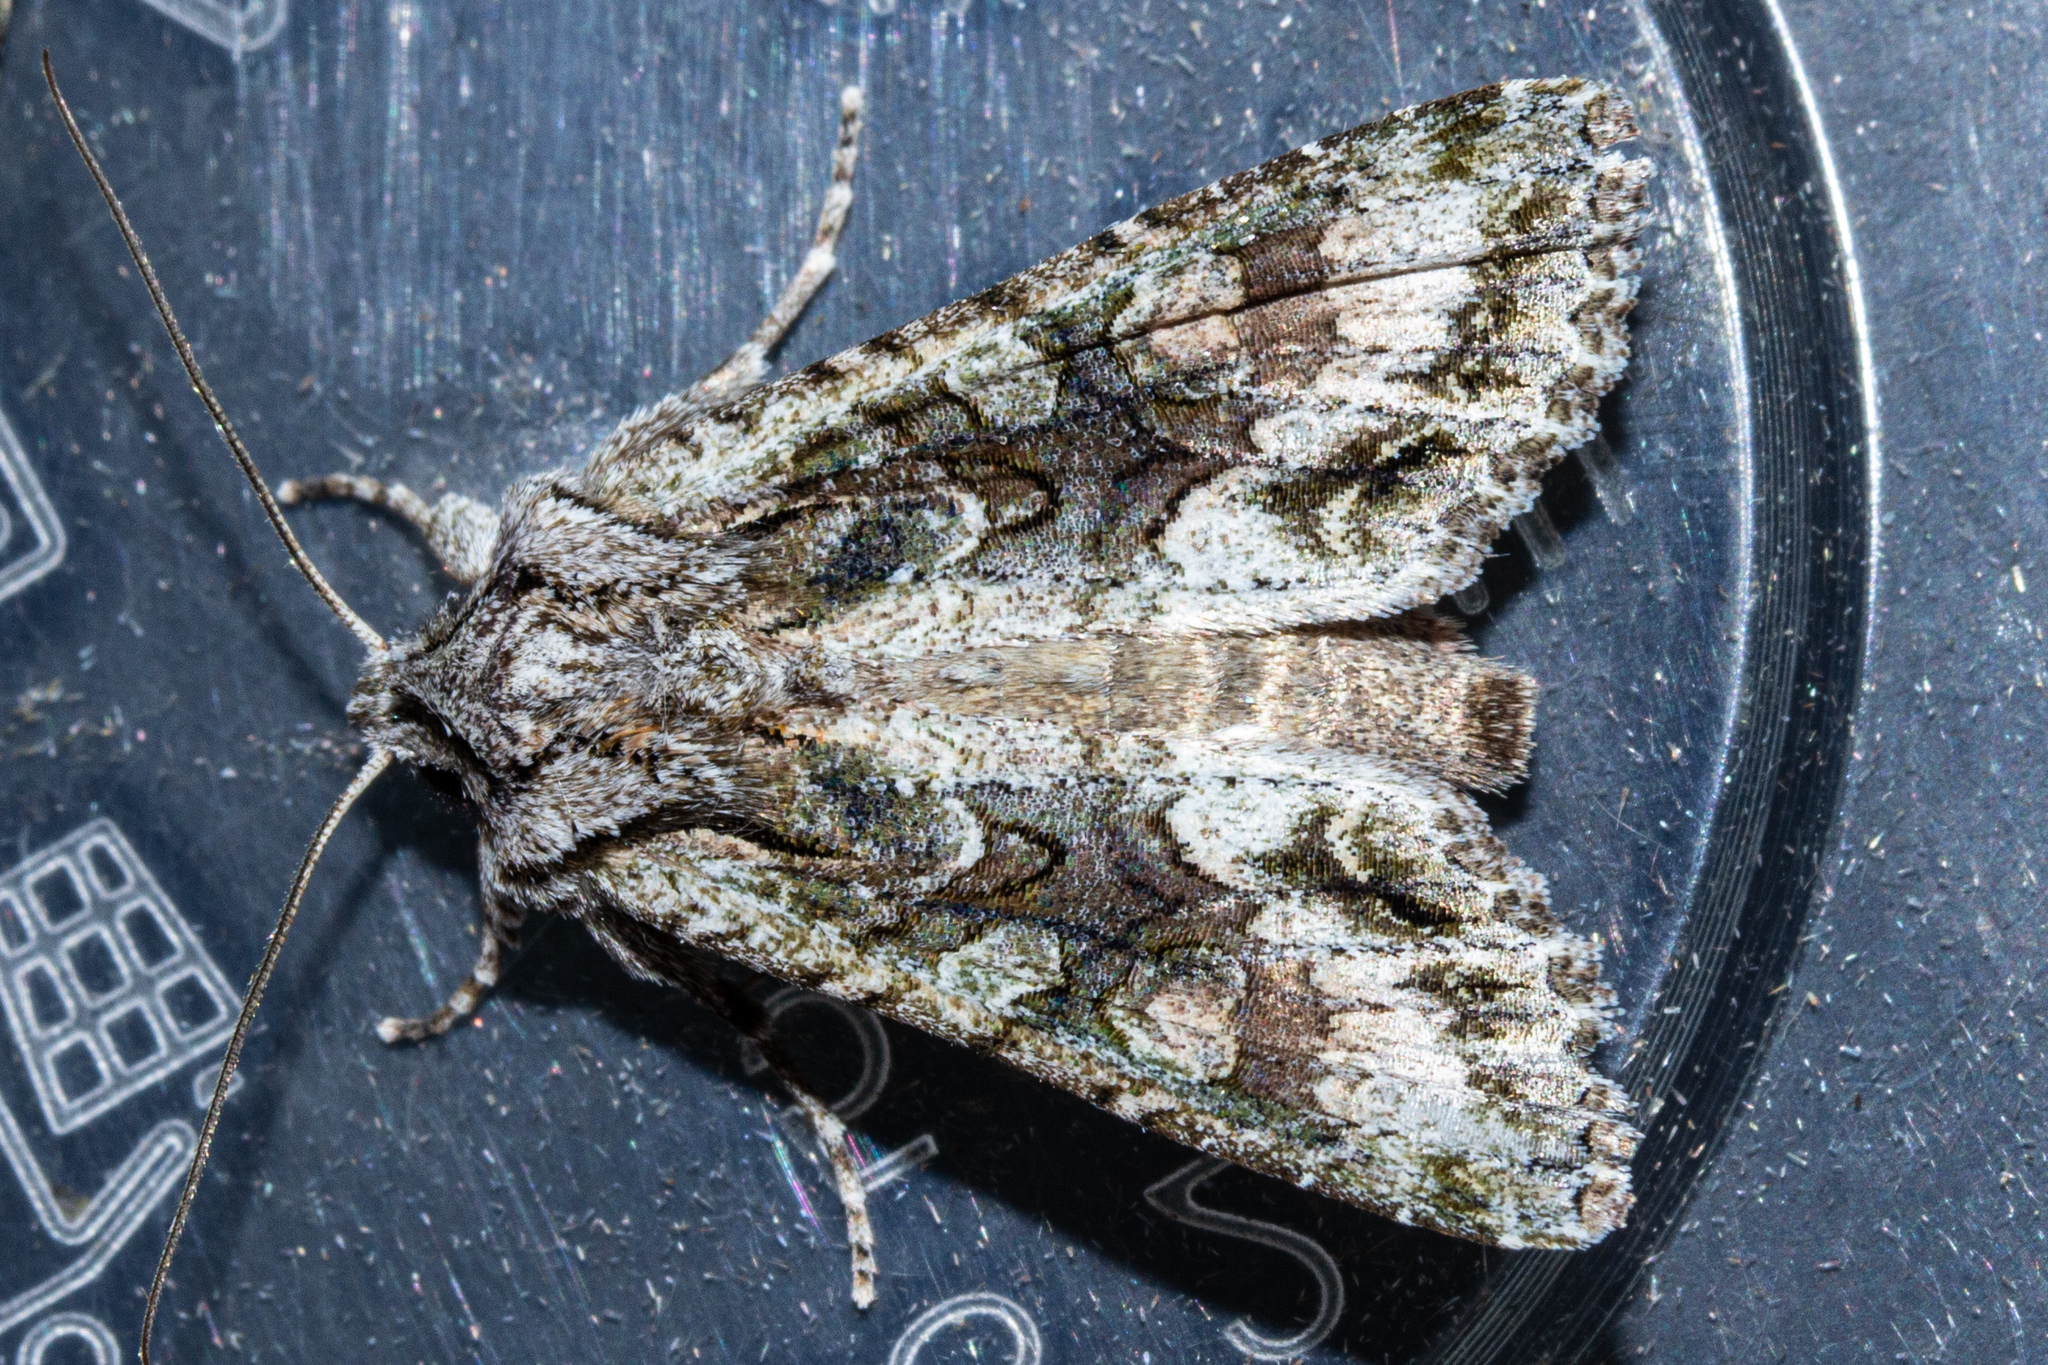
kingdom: Animalia
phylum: Arthropoda
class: Insecta
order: Lepidoptera
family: Noctuidae
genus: Ichneutica
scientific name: Ichneutica mutans
